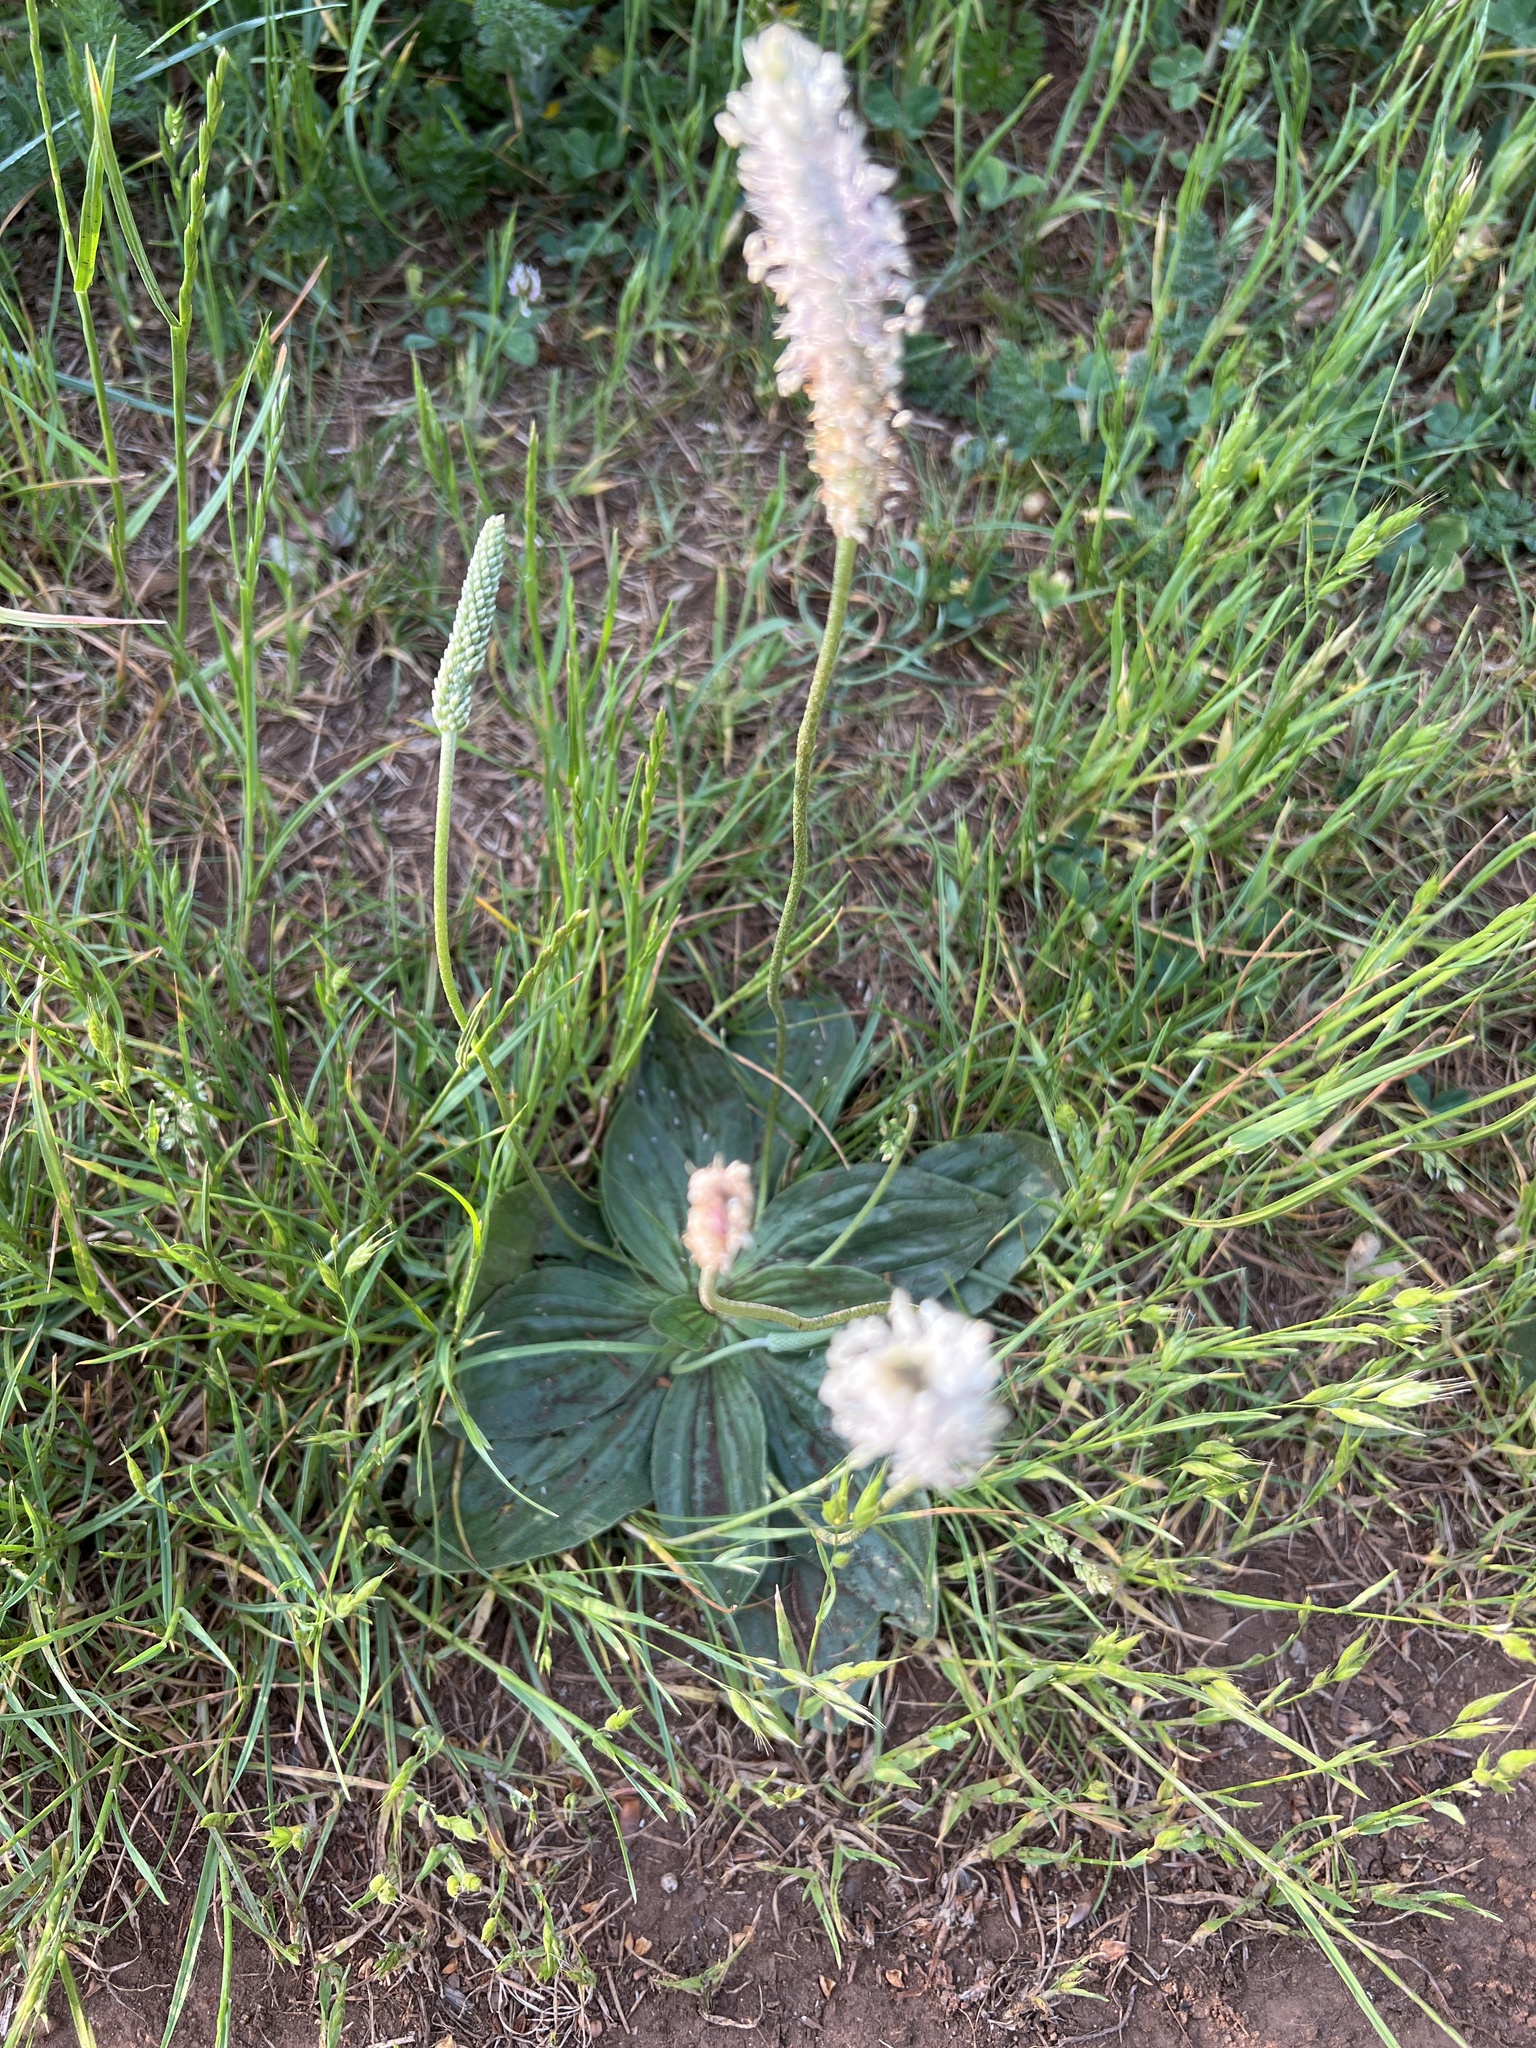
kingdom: Plantae
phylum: Tracheophyta
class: Magnoliopsida
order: Lamiales
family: Plantaginaceae
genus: Plantago
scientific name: Plantago media
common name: Hoary plantain
